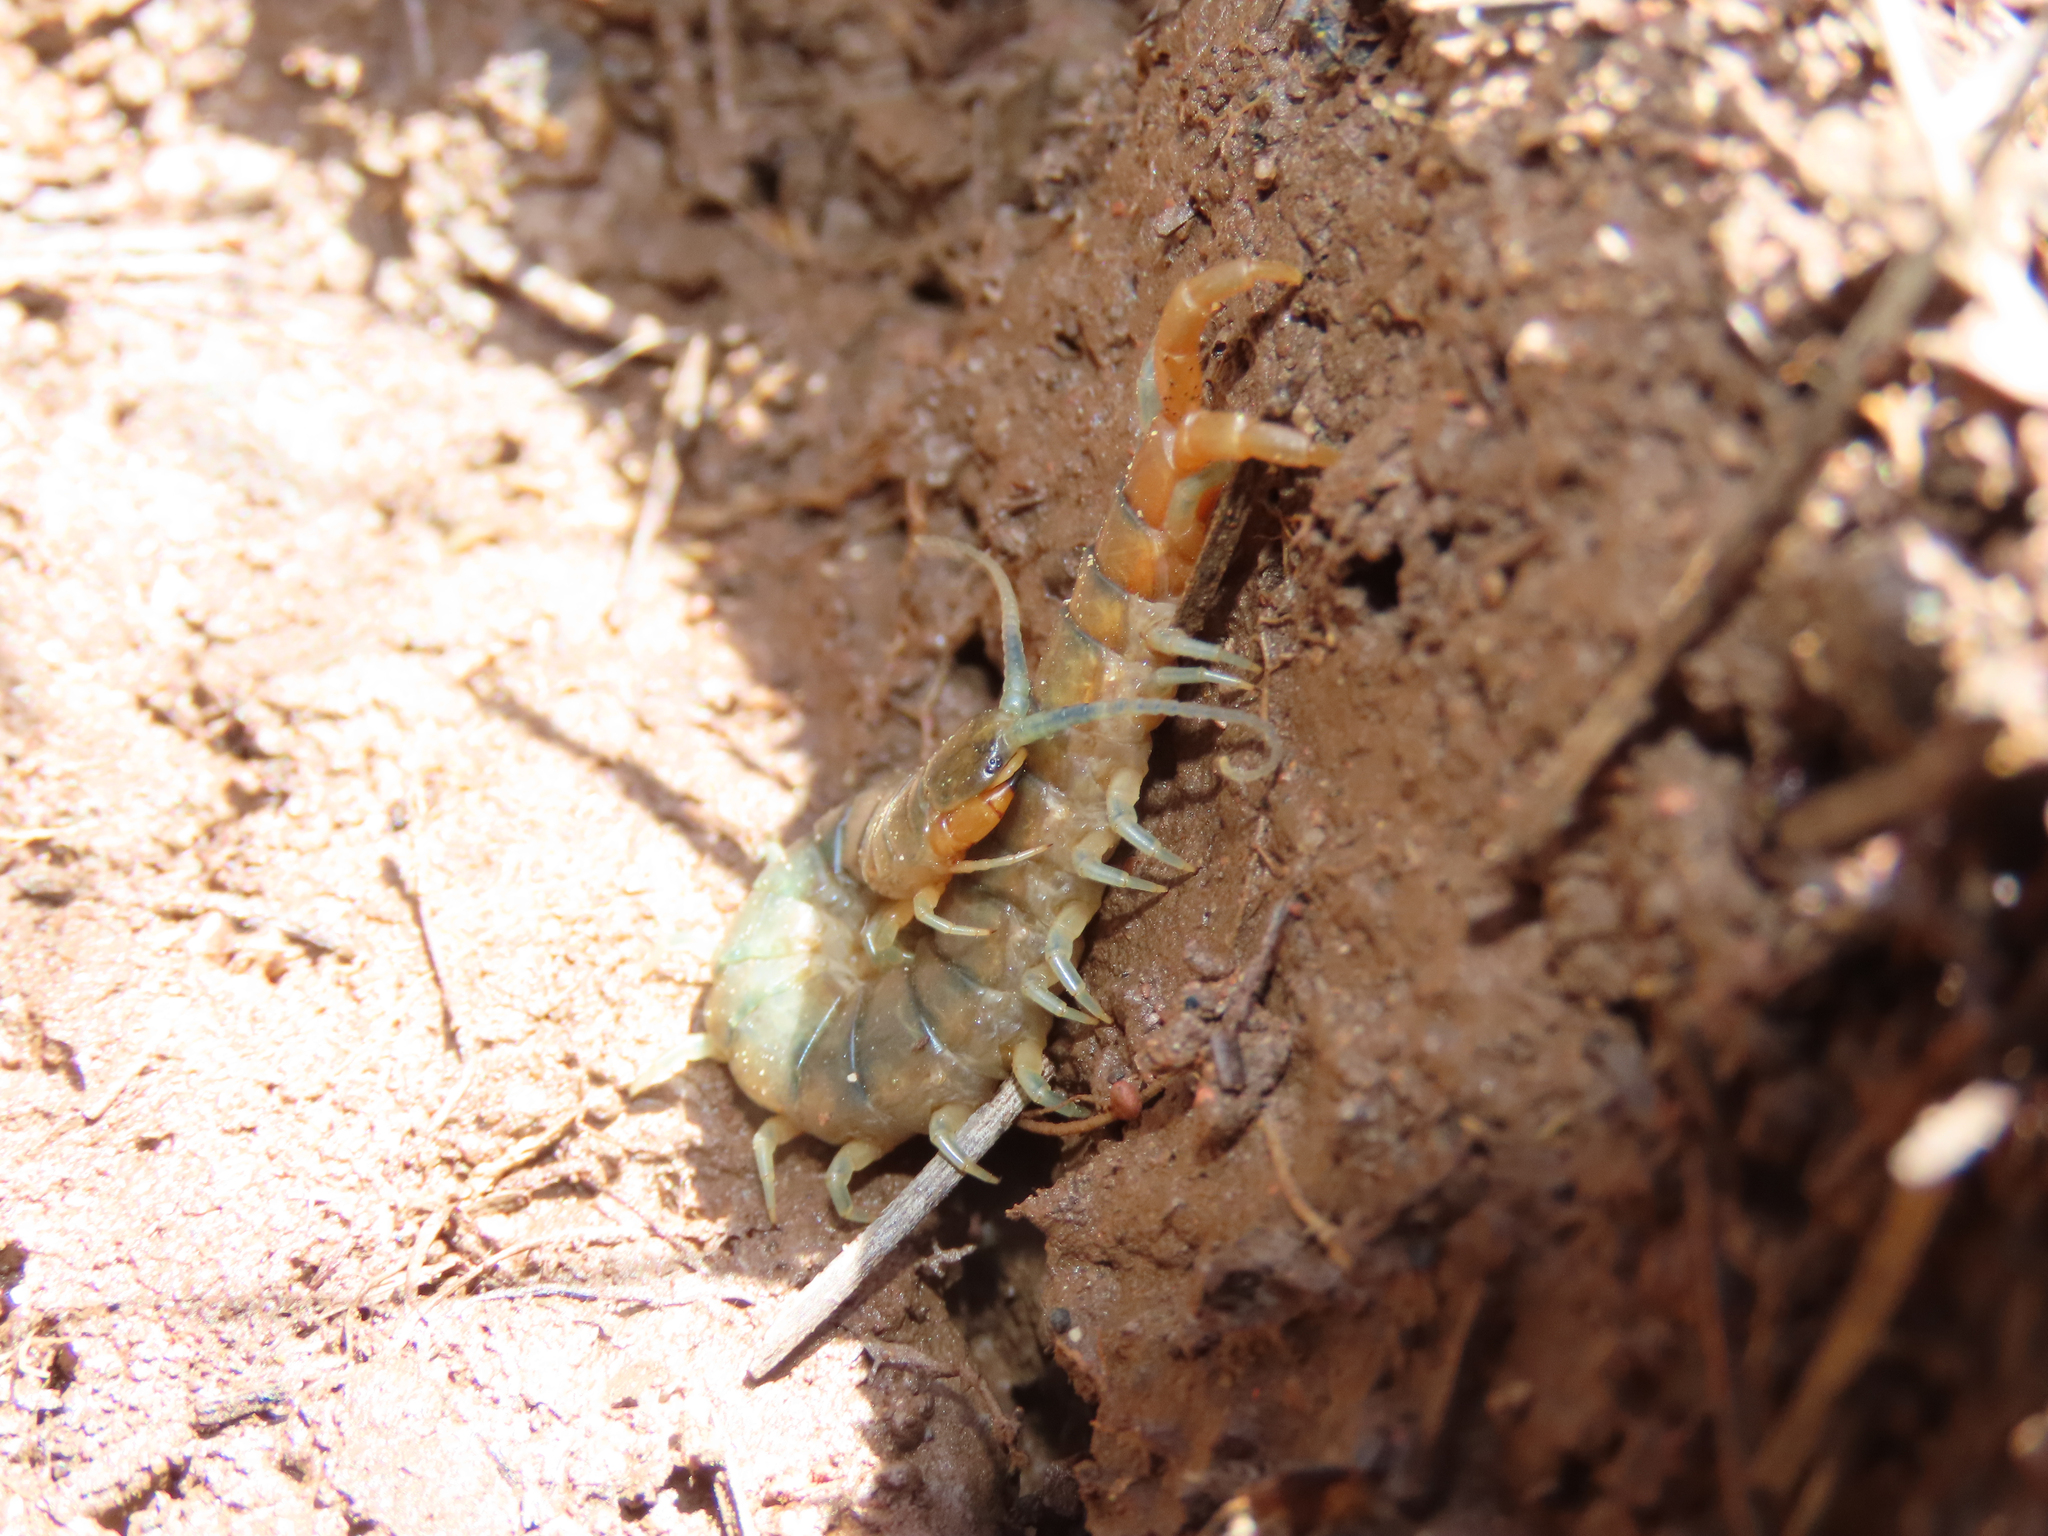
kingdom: Animalia
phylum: Arthropoda
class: Chilopoda
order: Scolopendromorpha
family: Scolopendridae
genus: Scolopendra
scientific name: Scolopendra viridis
